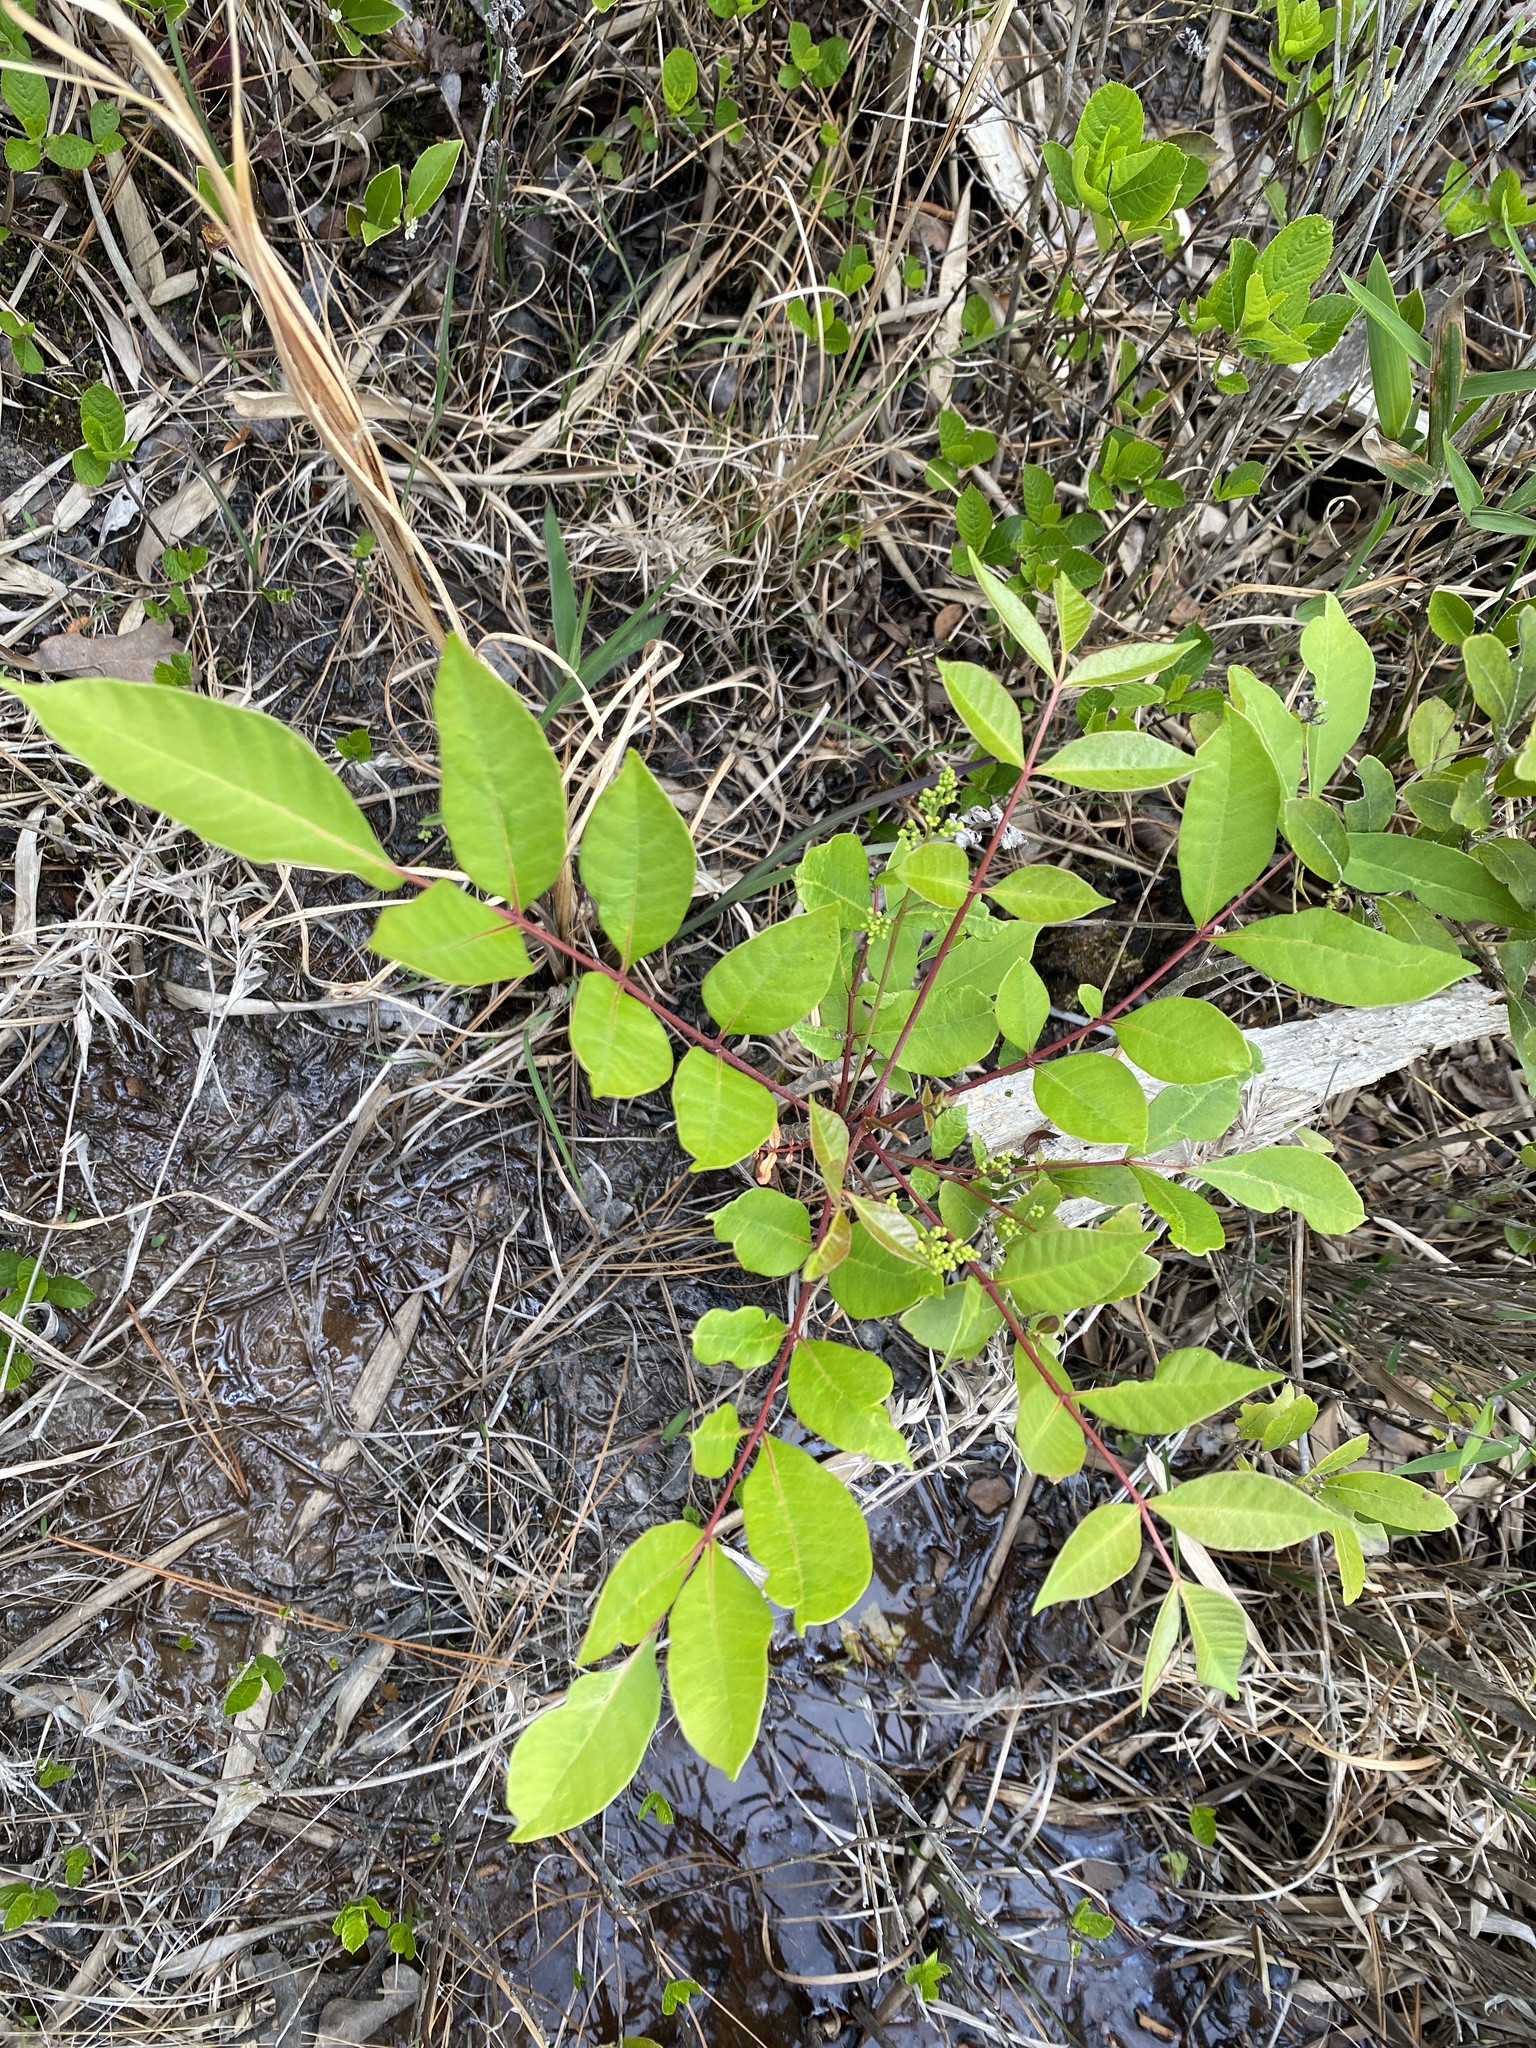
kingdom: Plantae
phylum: Tracheophyta
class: Magnoliopsida
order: Sapindales
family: Anacardiaceae
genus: Toxicodendron
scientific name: Toxicodendron vernix
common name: Poison sumac
